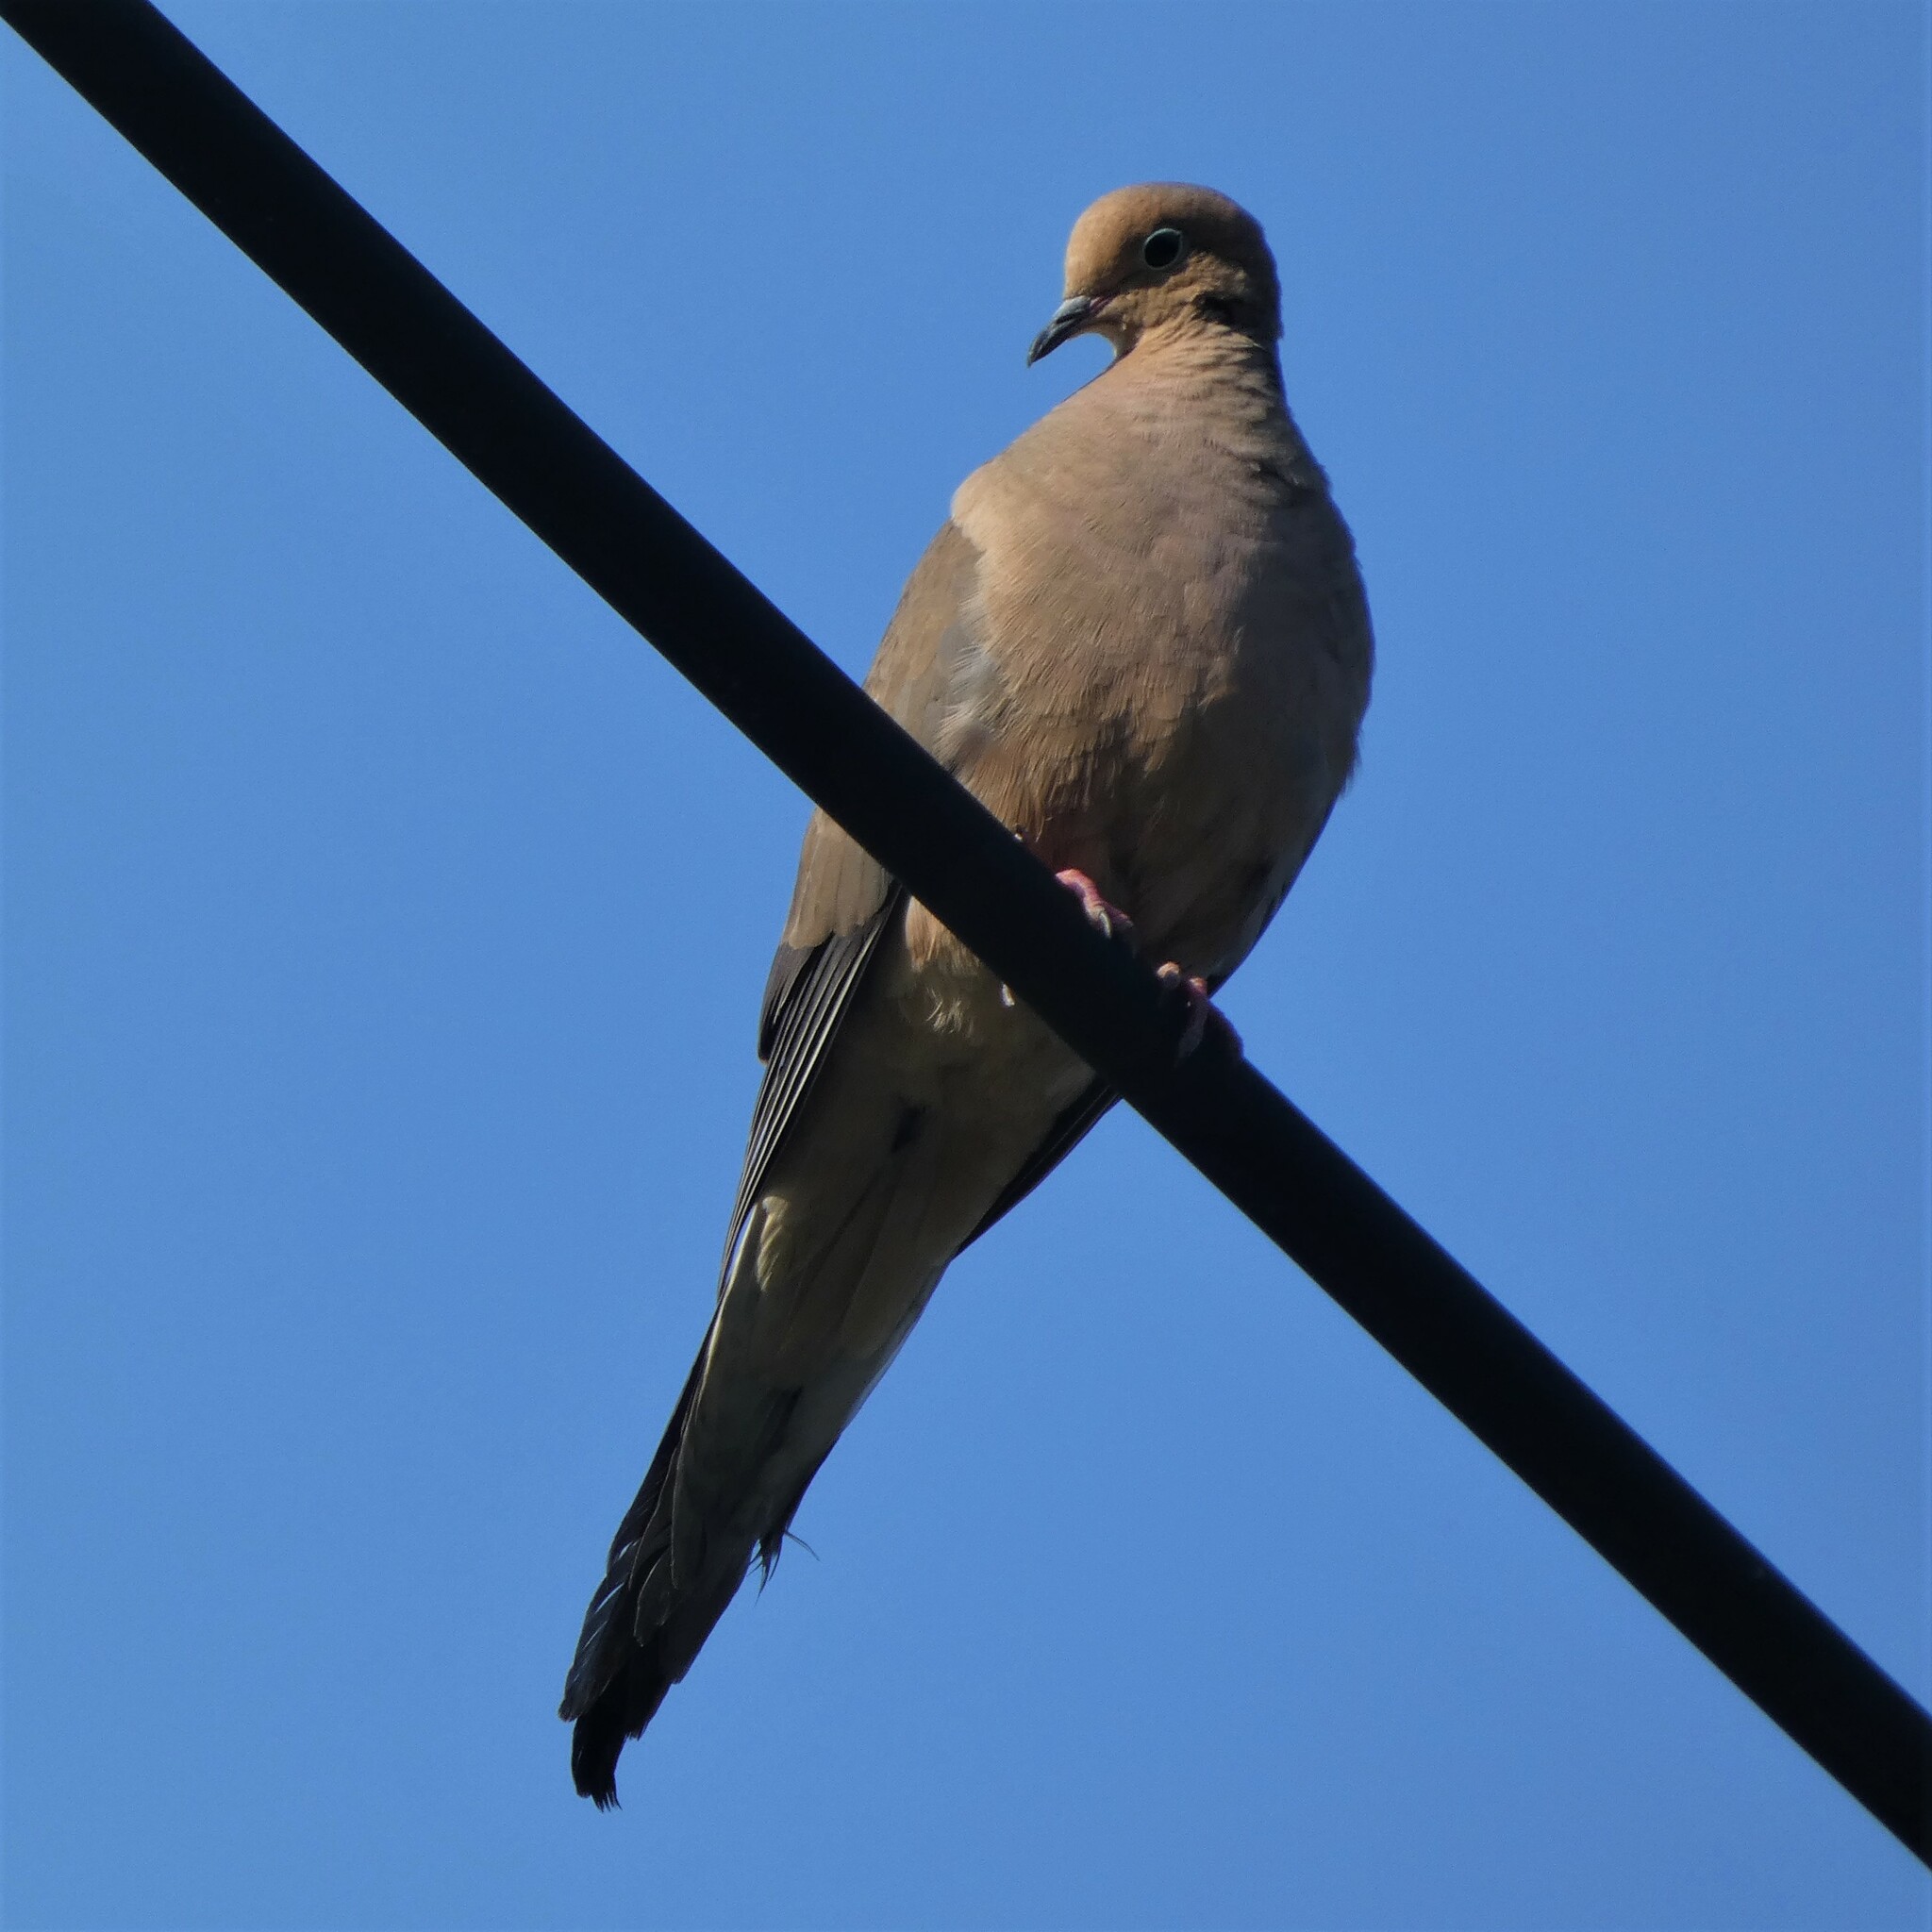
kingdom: Animalia
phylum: Chordata
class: Aves
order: Columbiformes
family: Columbidae
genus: Zenaida
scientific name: Zenaida macroura
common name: Mourning dove
